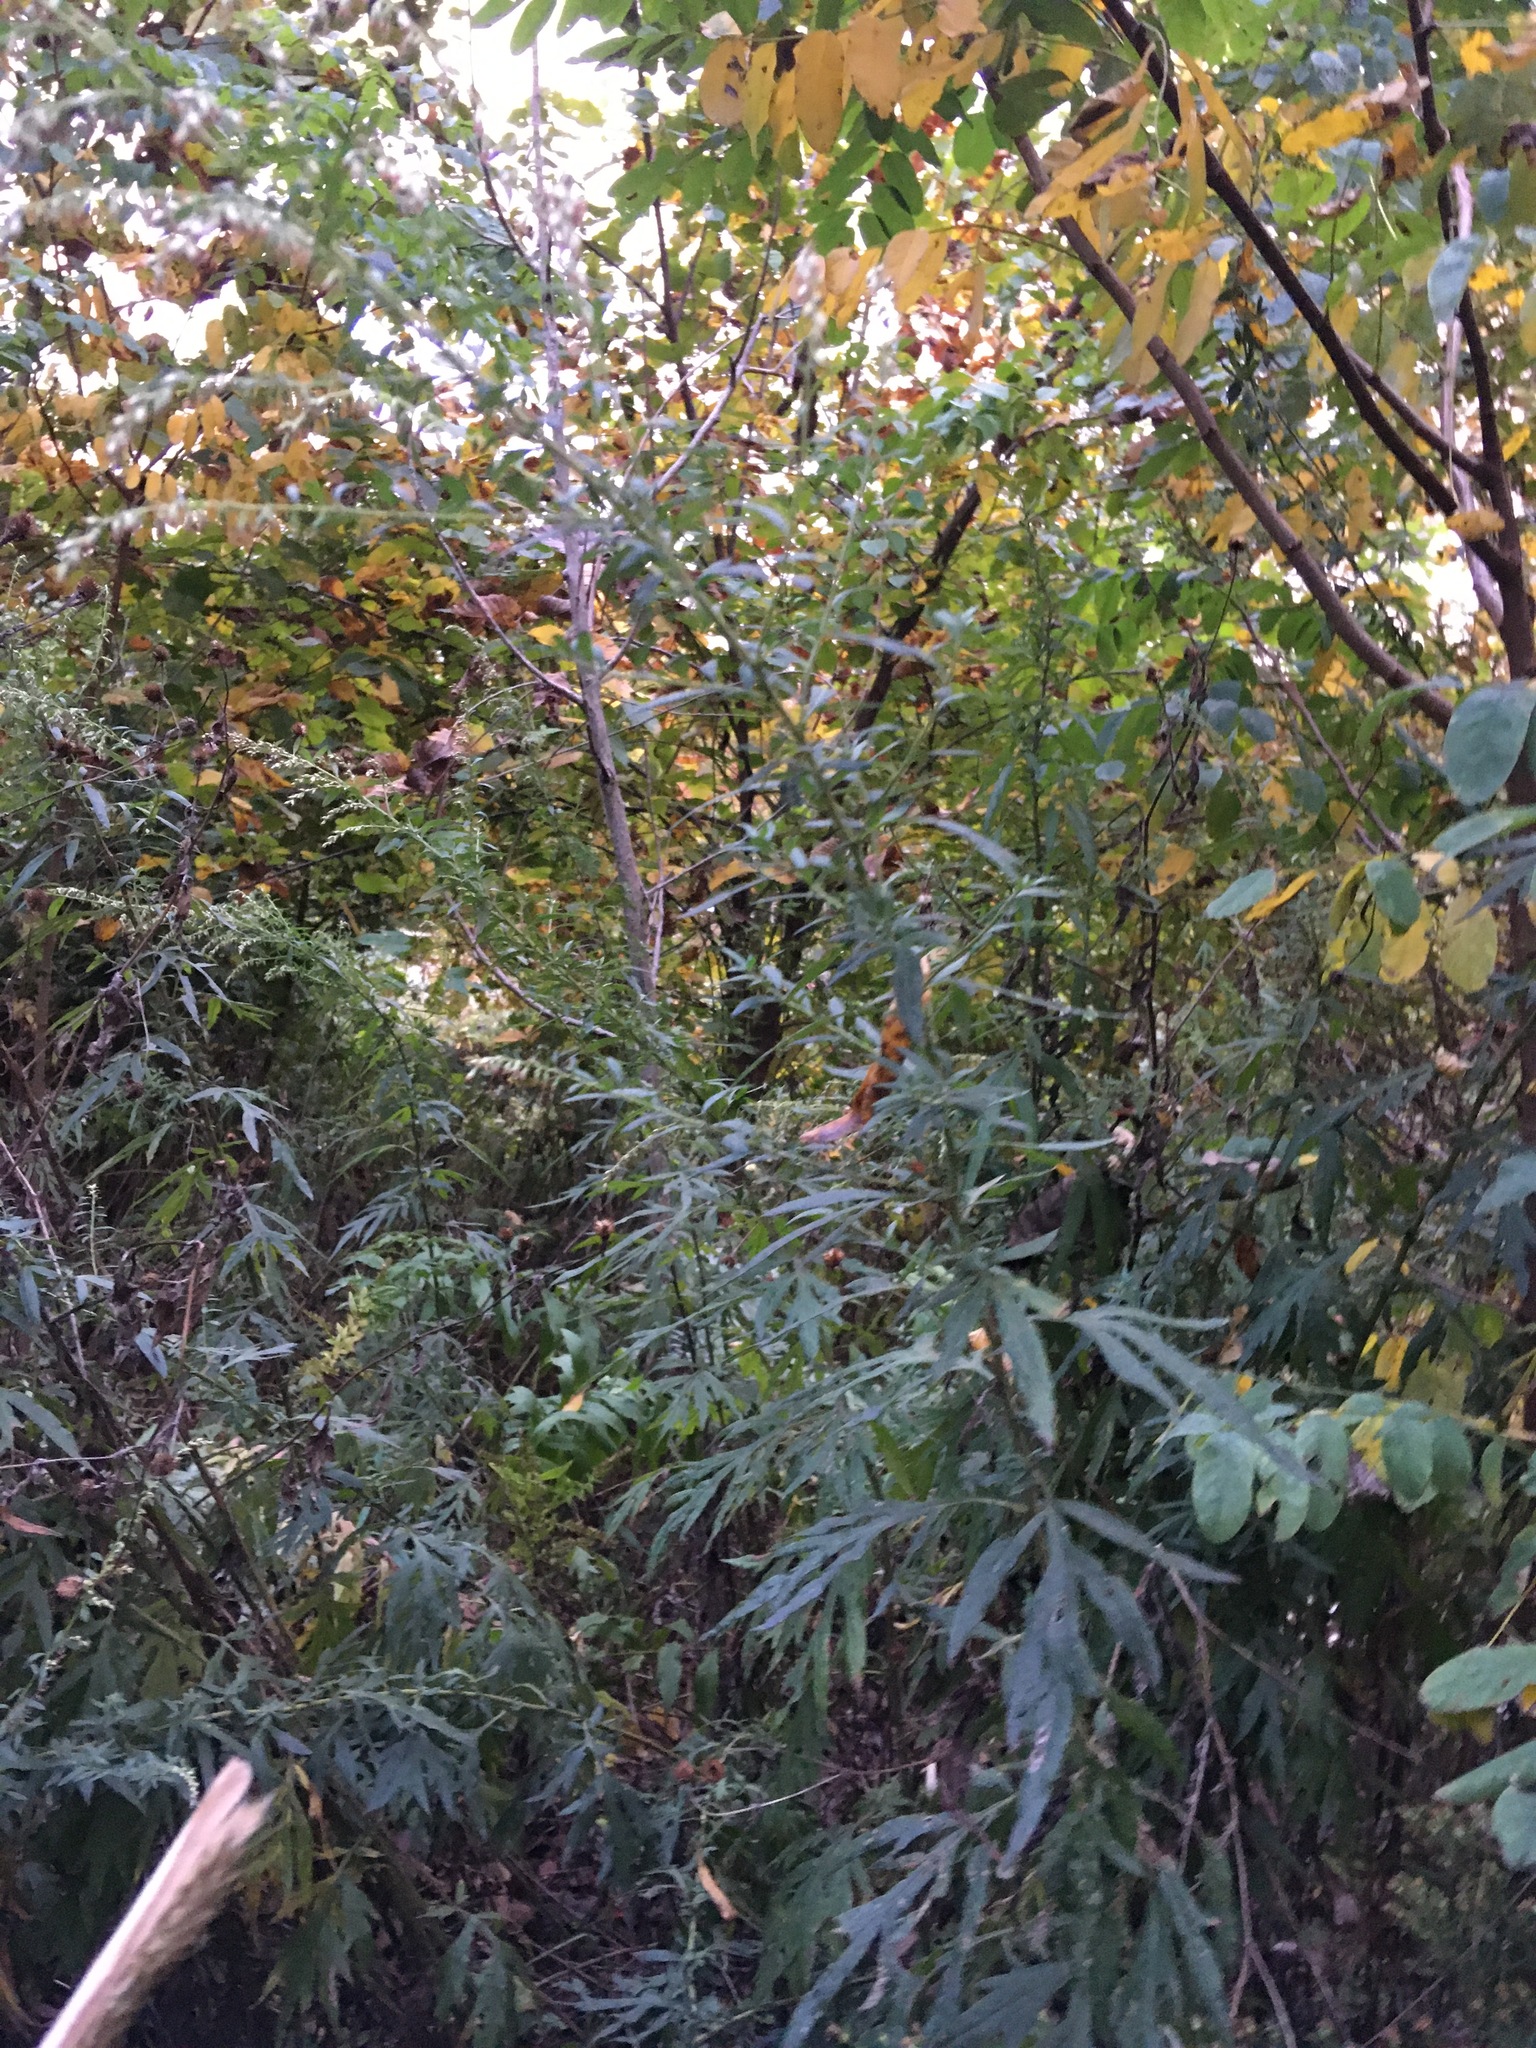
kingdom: Plantae
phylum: Tracheophyta
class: Magnoliopsida
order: Asterales
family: Asteraceae
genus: Artemisia
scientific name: Artemisia vulgaris
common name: Mugwort
